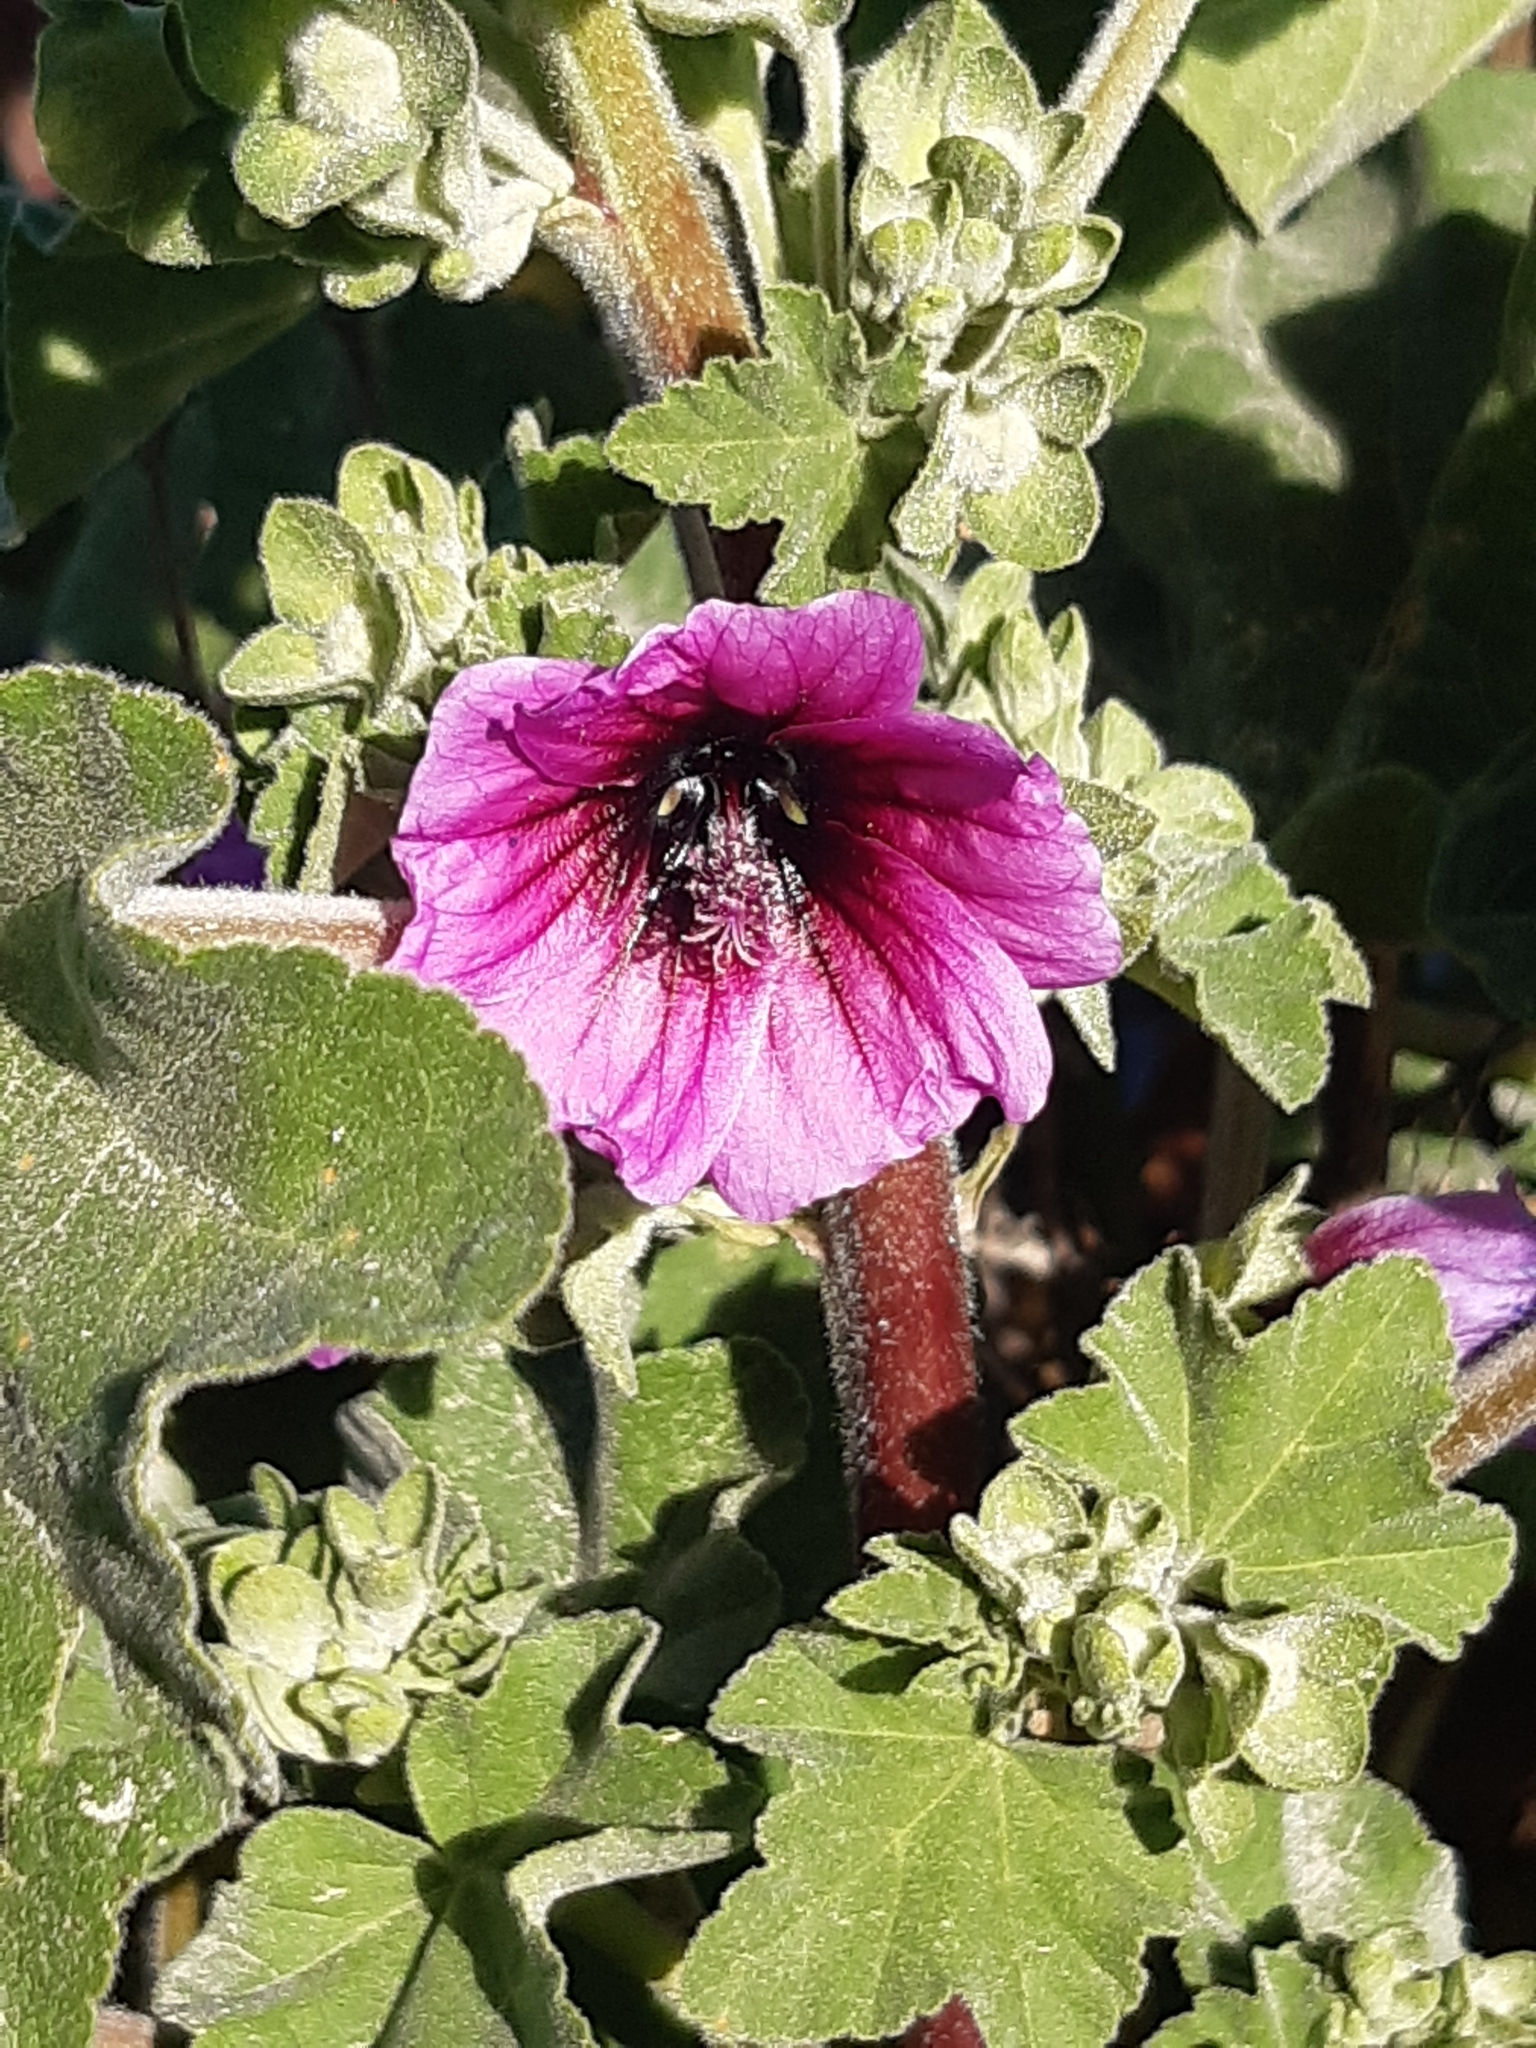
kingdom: Plantae
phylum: Tracheophyta
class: Magnoliopsida
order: Malvales
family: Malvaceae
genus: Malva
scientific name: Malva arborea
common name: Tree mallow
